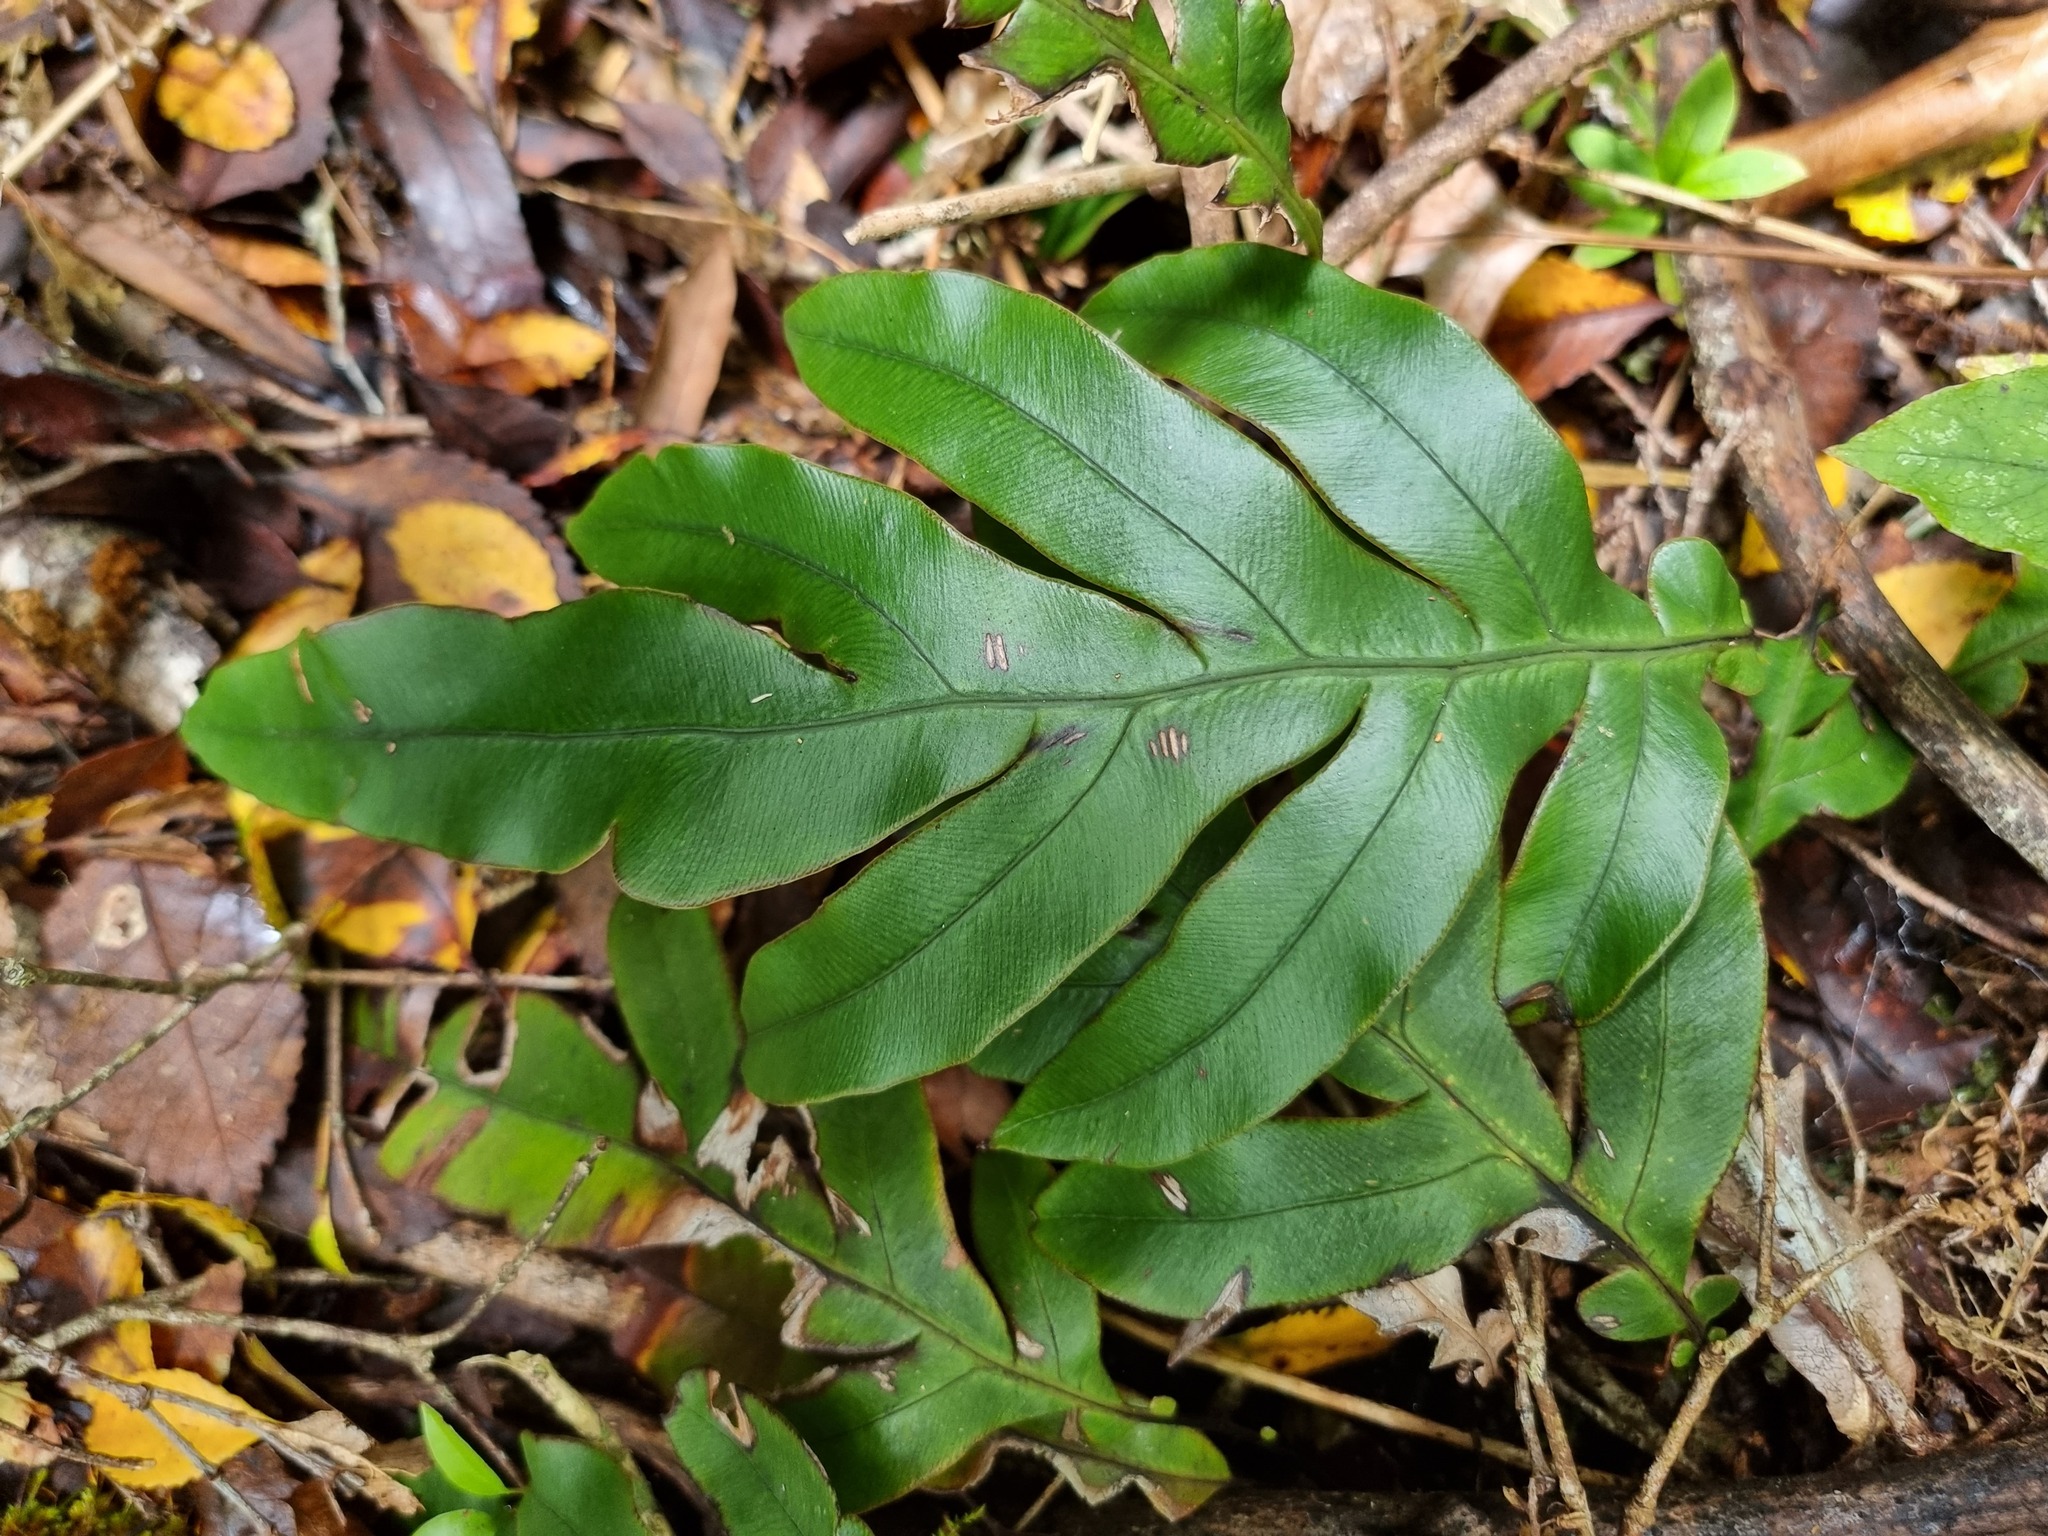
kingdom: Plantae
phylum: Tracheophyta
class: Polypodiopsida
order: Polypodiales
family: Blechnaceae
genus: Austroblechnum
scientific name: Austroblechnum colensoi
